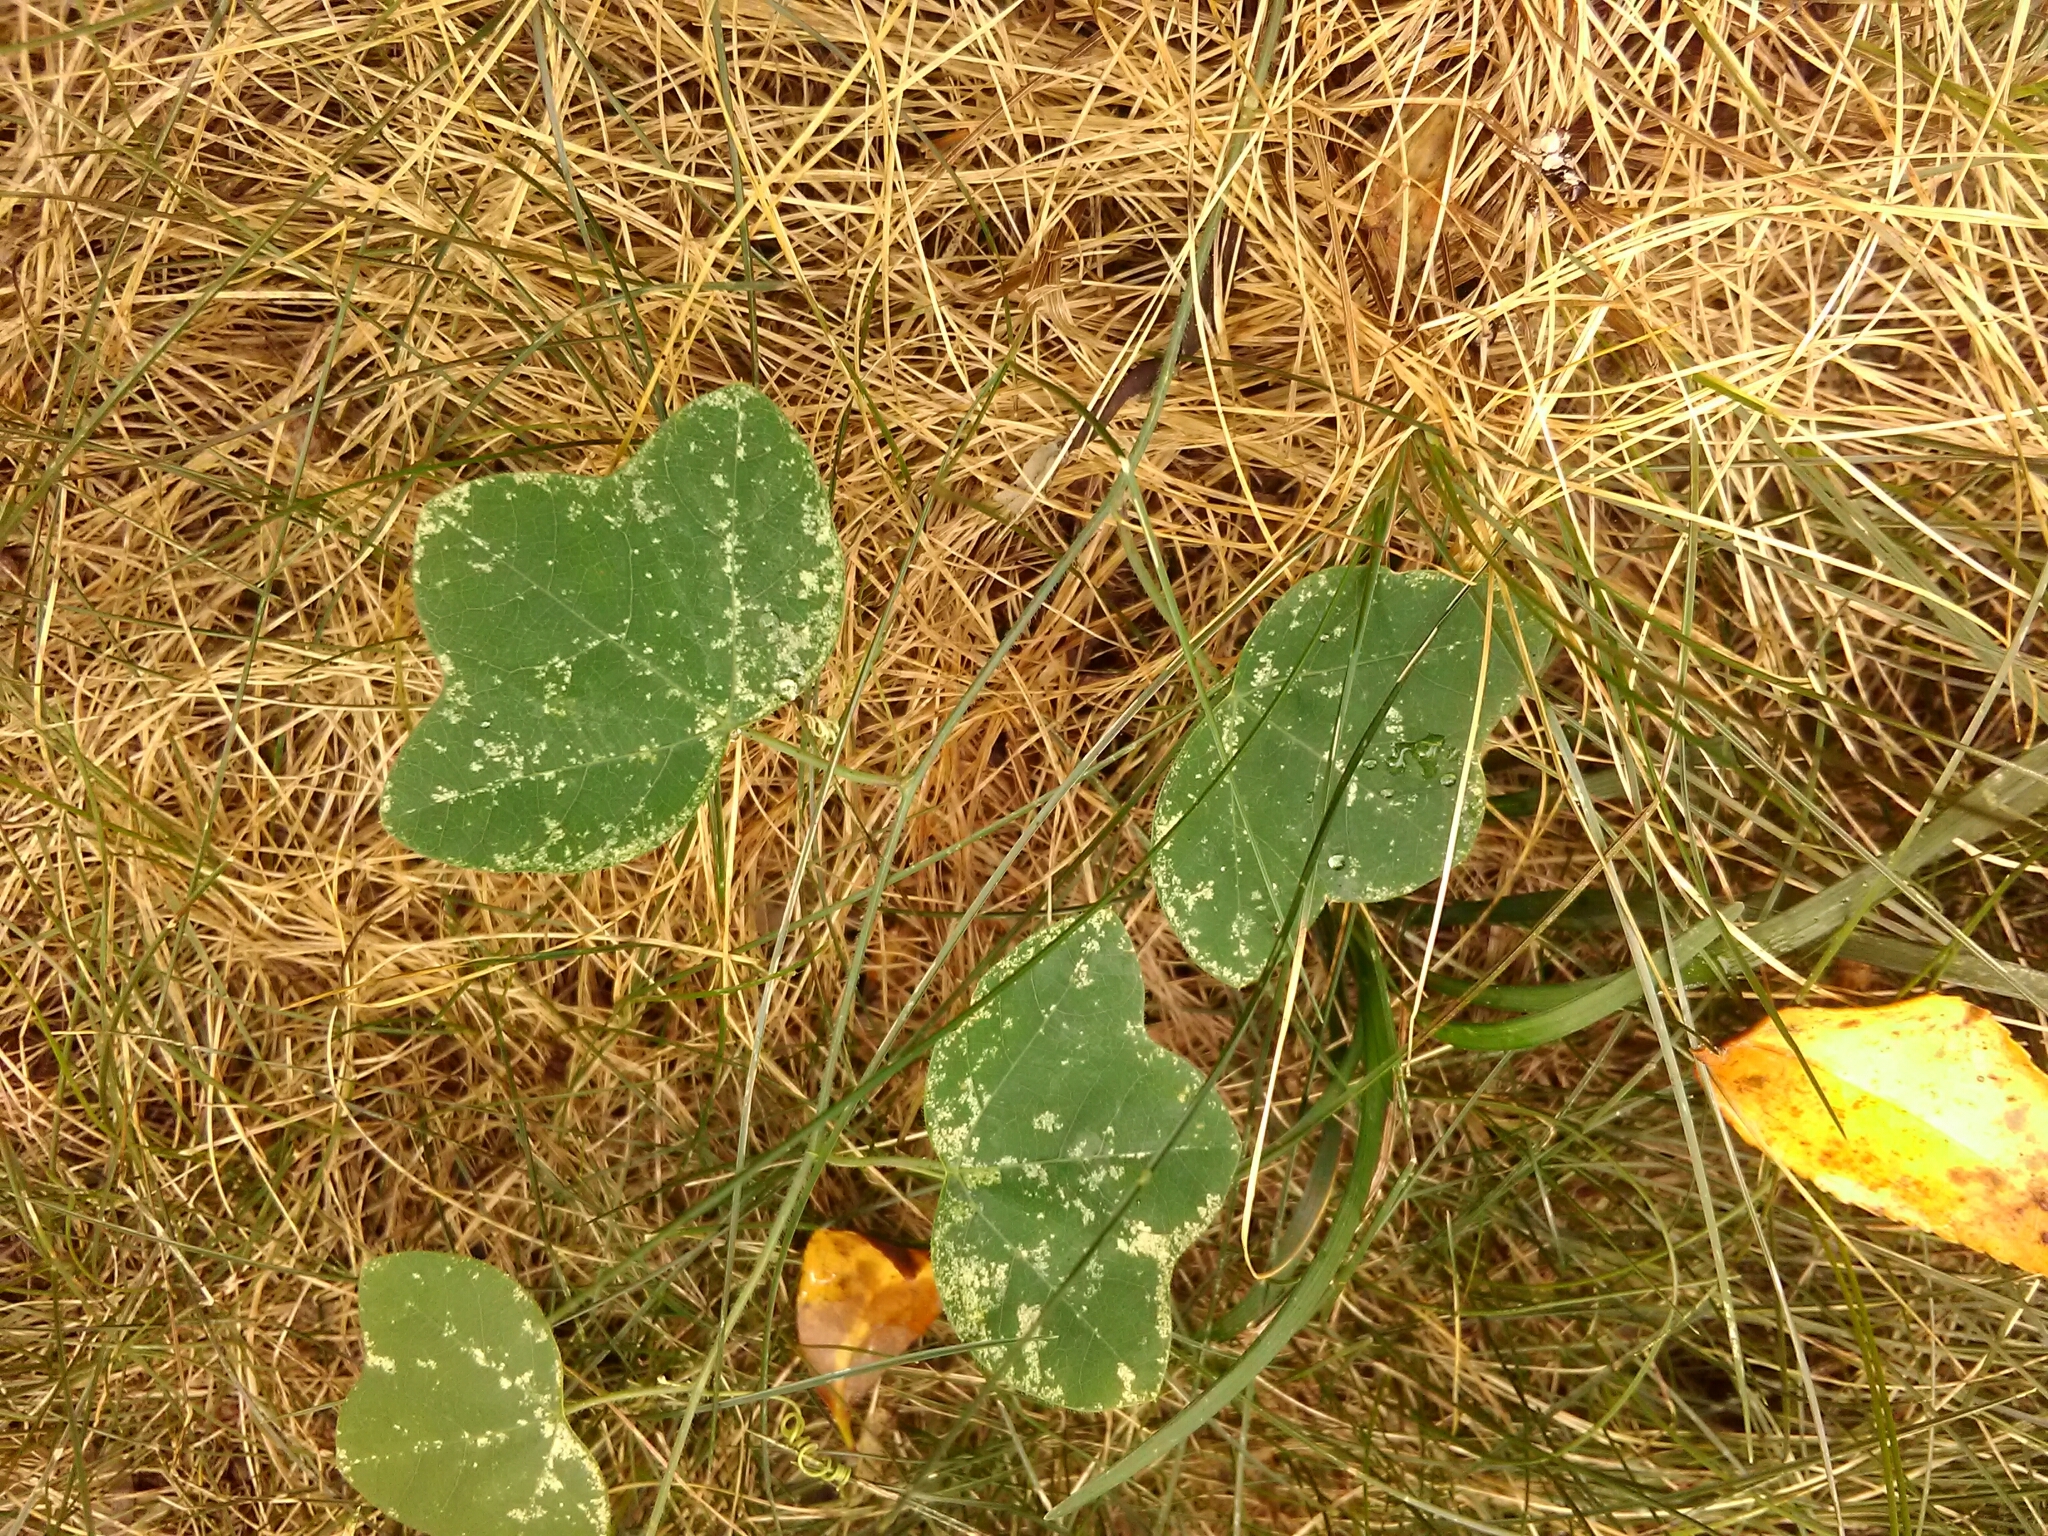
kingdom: Plantae
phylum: Tracheophyta
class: Magnoliopsida
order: Malpighiales
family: Passifloraceae
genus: Passiflora
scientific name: Passiflora lutea
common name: Yellow passionflower
